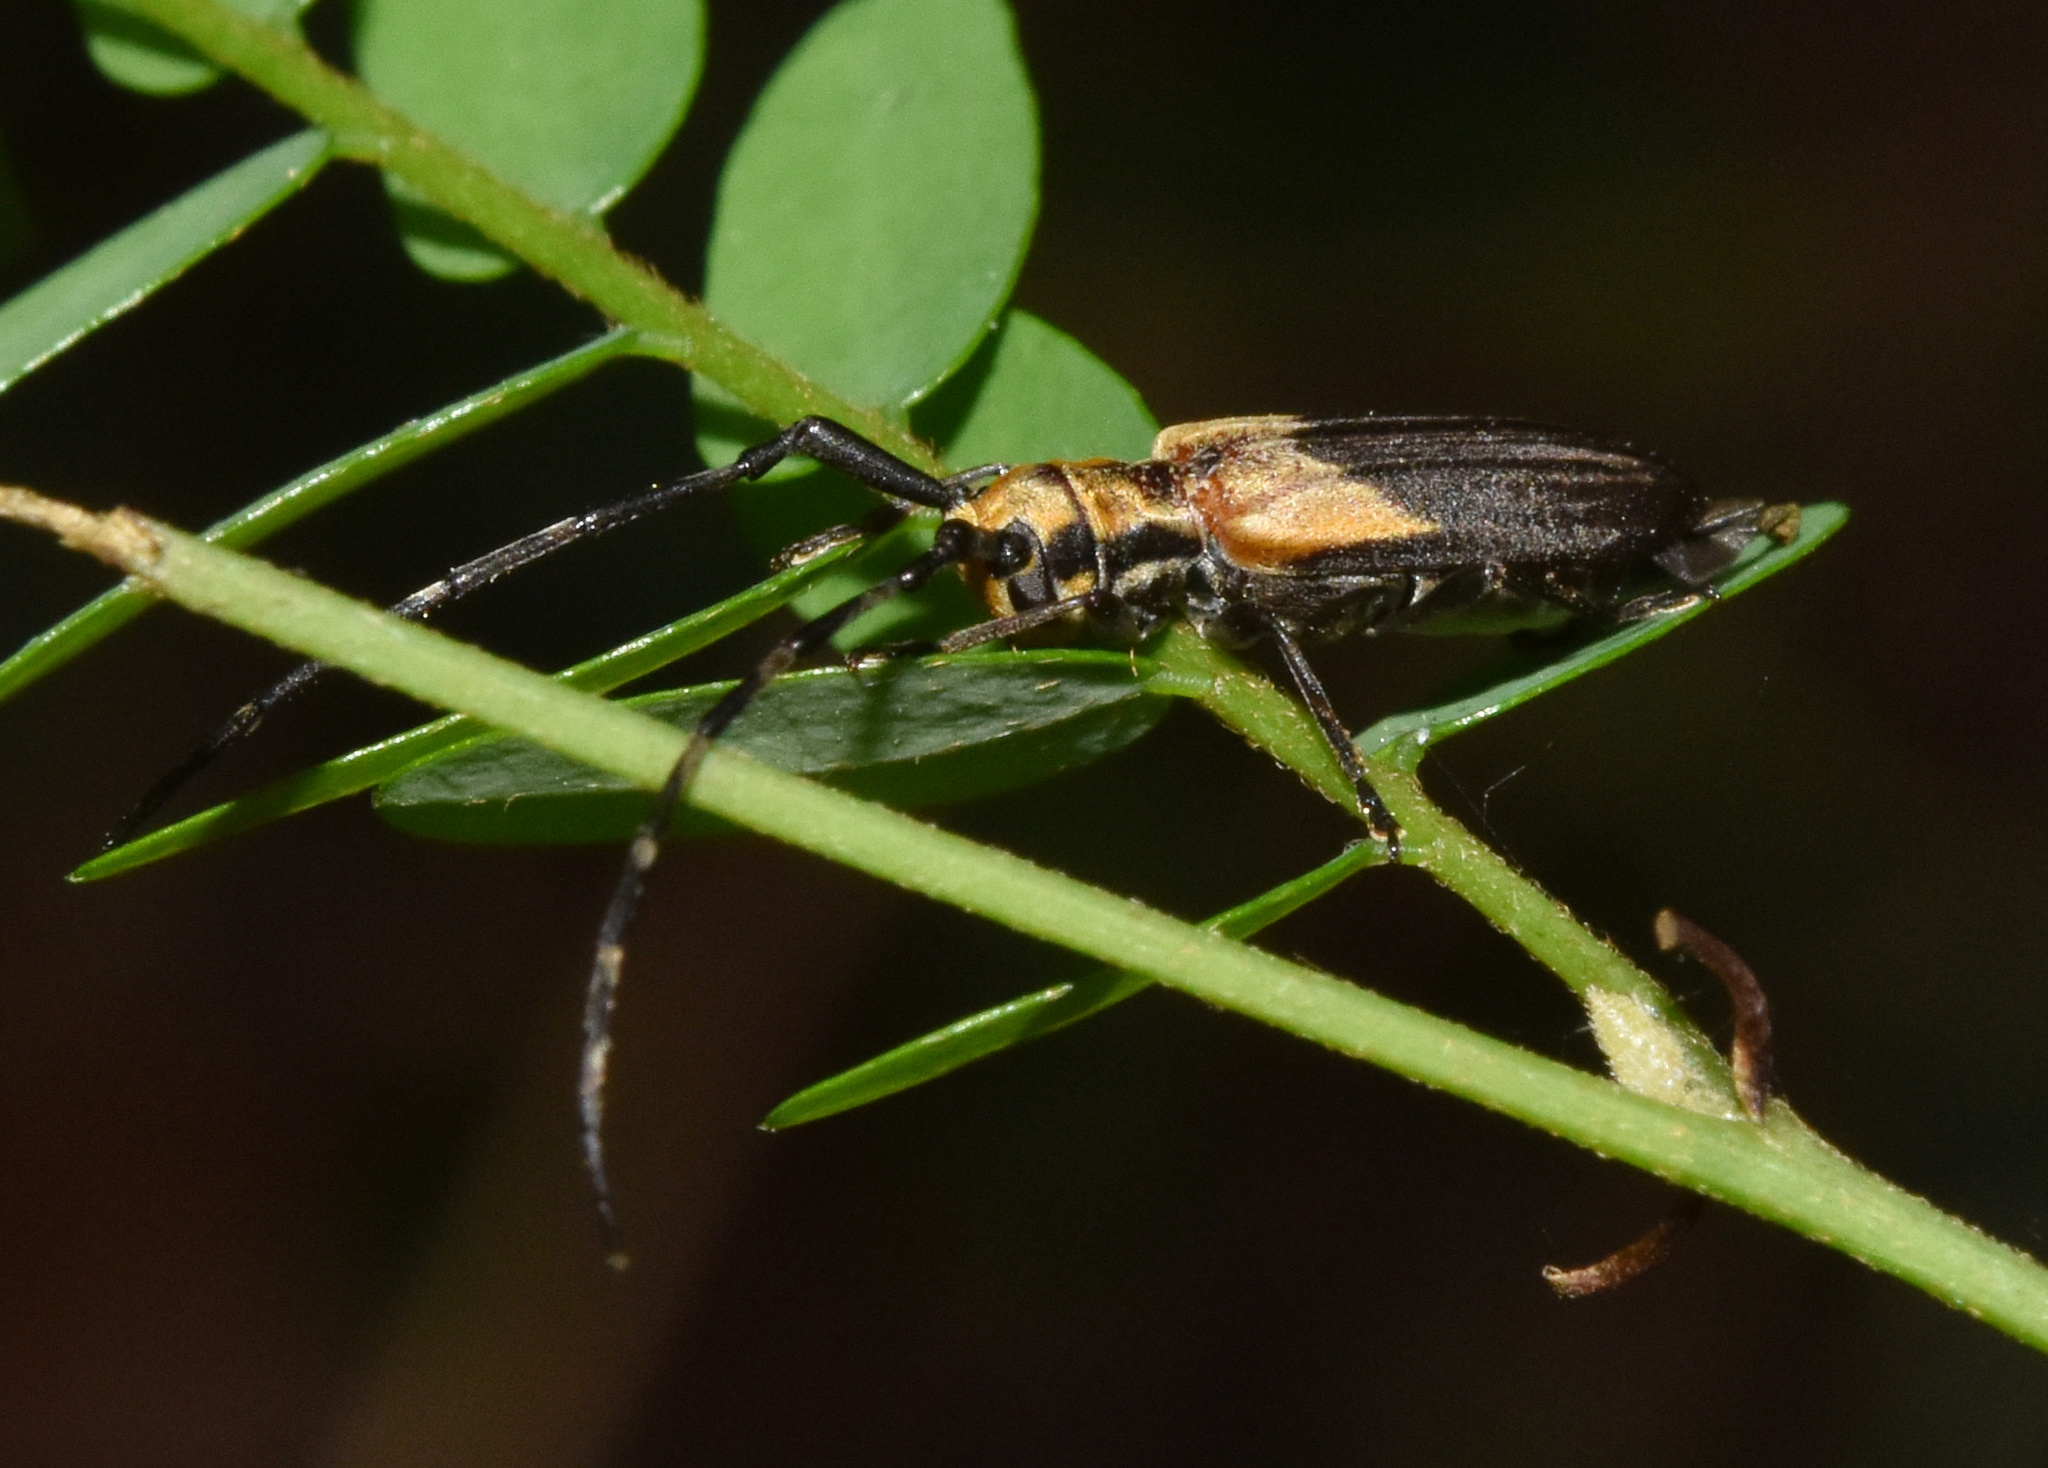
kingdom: Animalia
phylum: Arthropoda
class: Insecta
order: Coleoptera
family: Cerambycidae
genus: Eunidia
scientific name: Eunidia divisa
